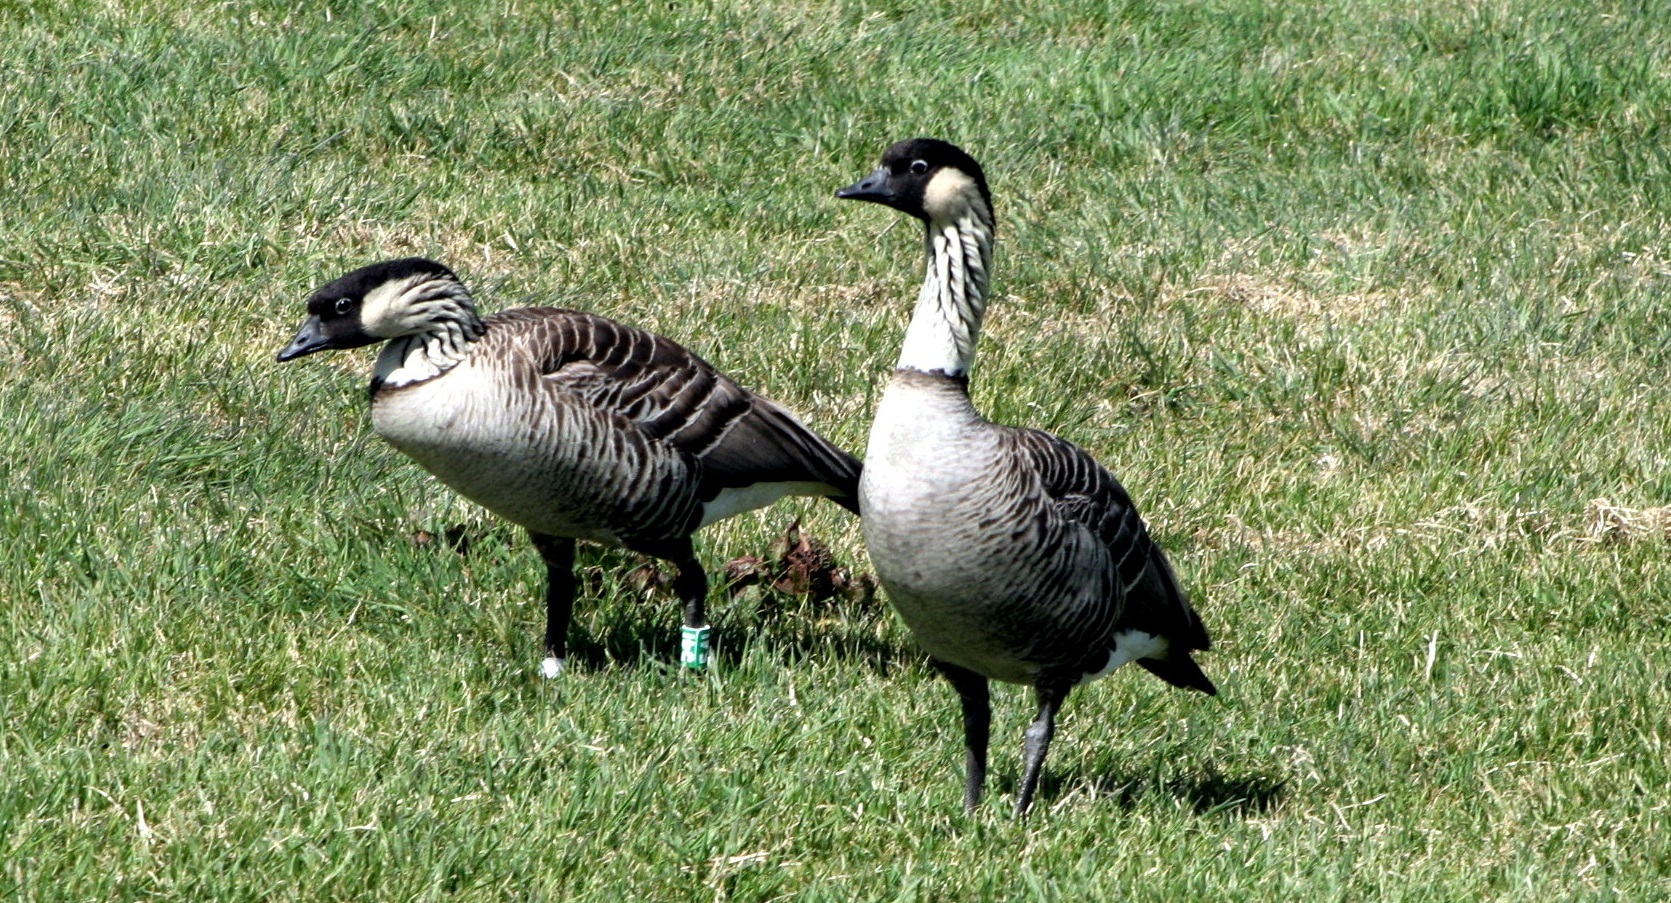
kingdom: Animalia
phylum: Chordata
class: Aves
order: Anseriformes
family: Anatidae
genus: Branta
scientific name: Branta sandvicensis
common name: Nene
